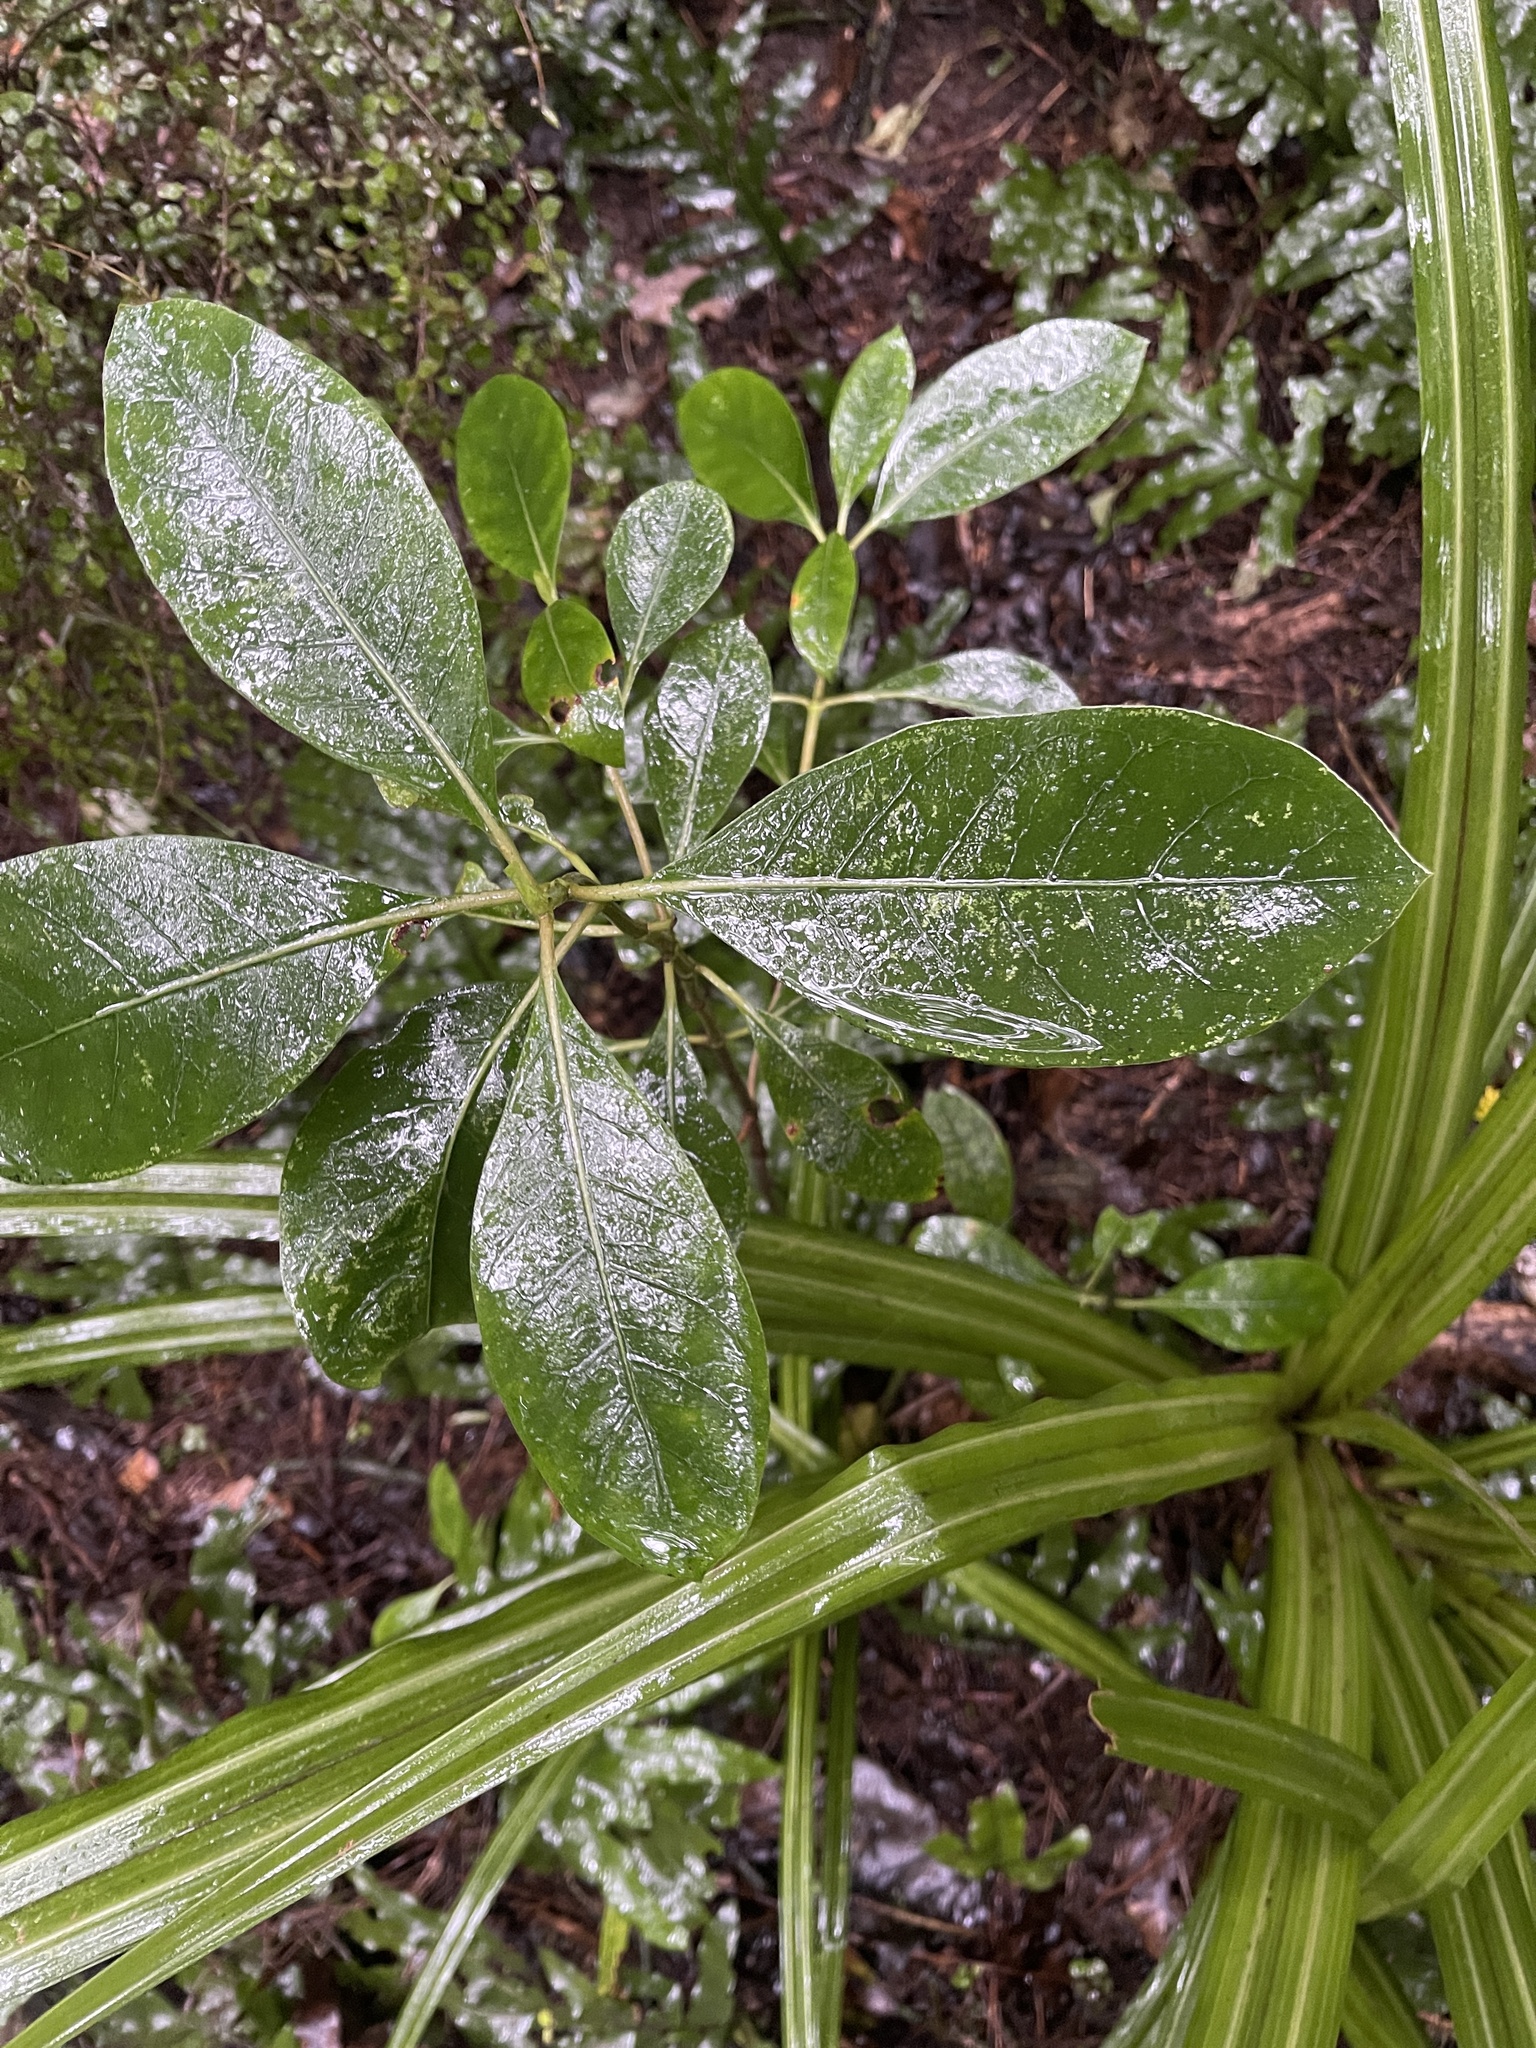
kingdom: Plantae
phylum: Tracheophyta
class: Magnoliopsida
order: Gentianales
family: Rubiaceae
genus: Coprosma
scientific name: Coprosma lucida
